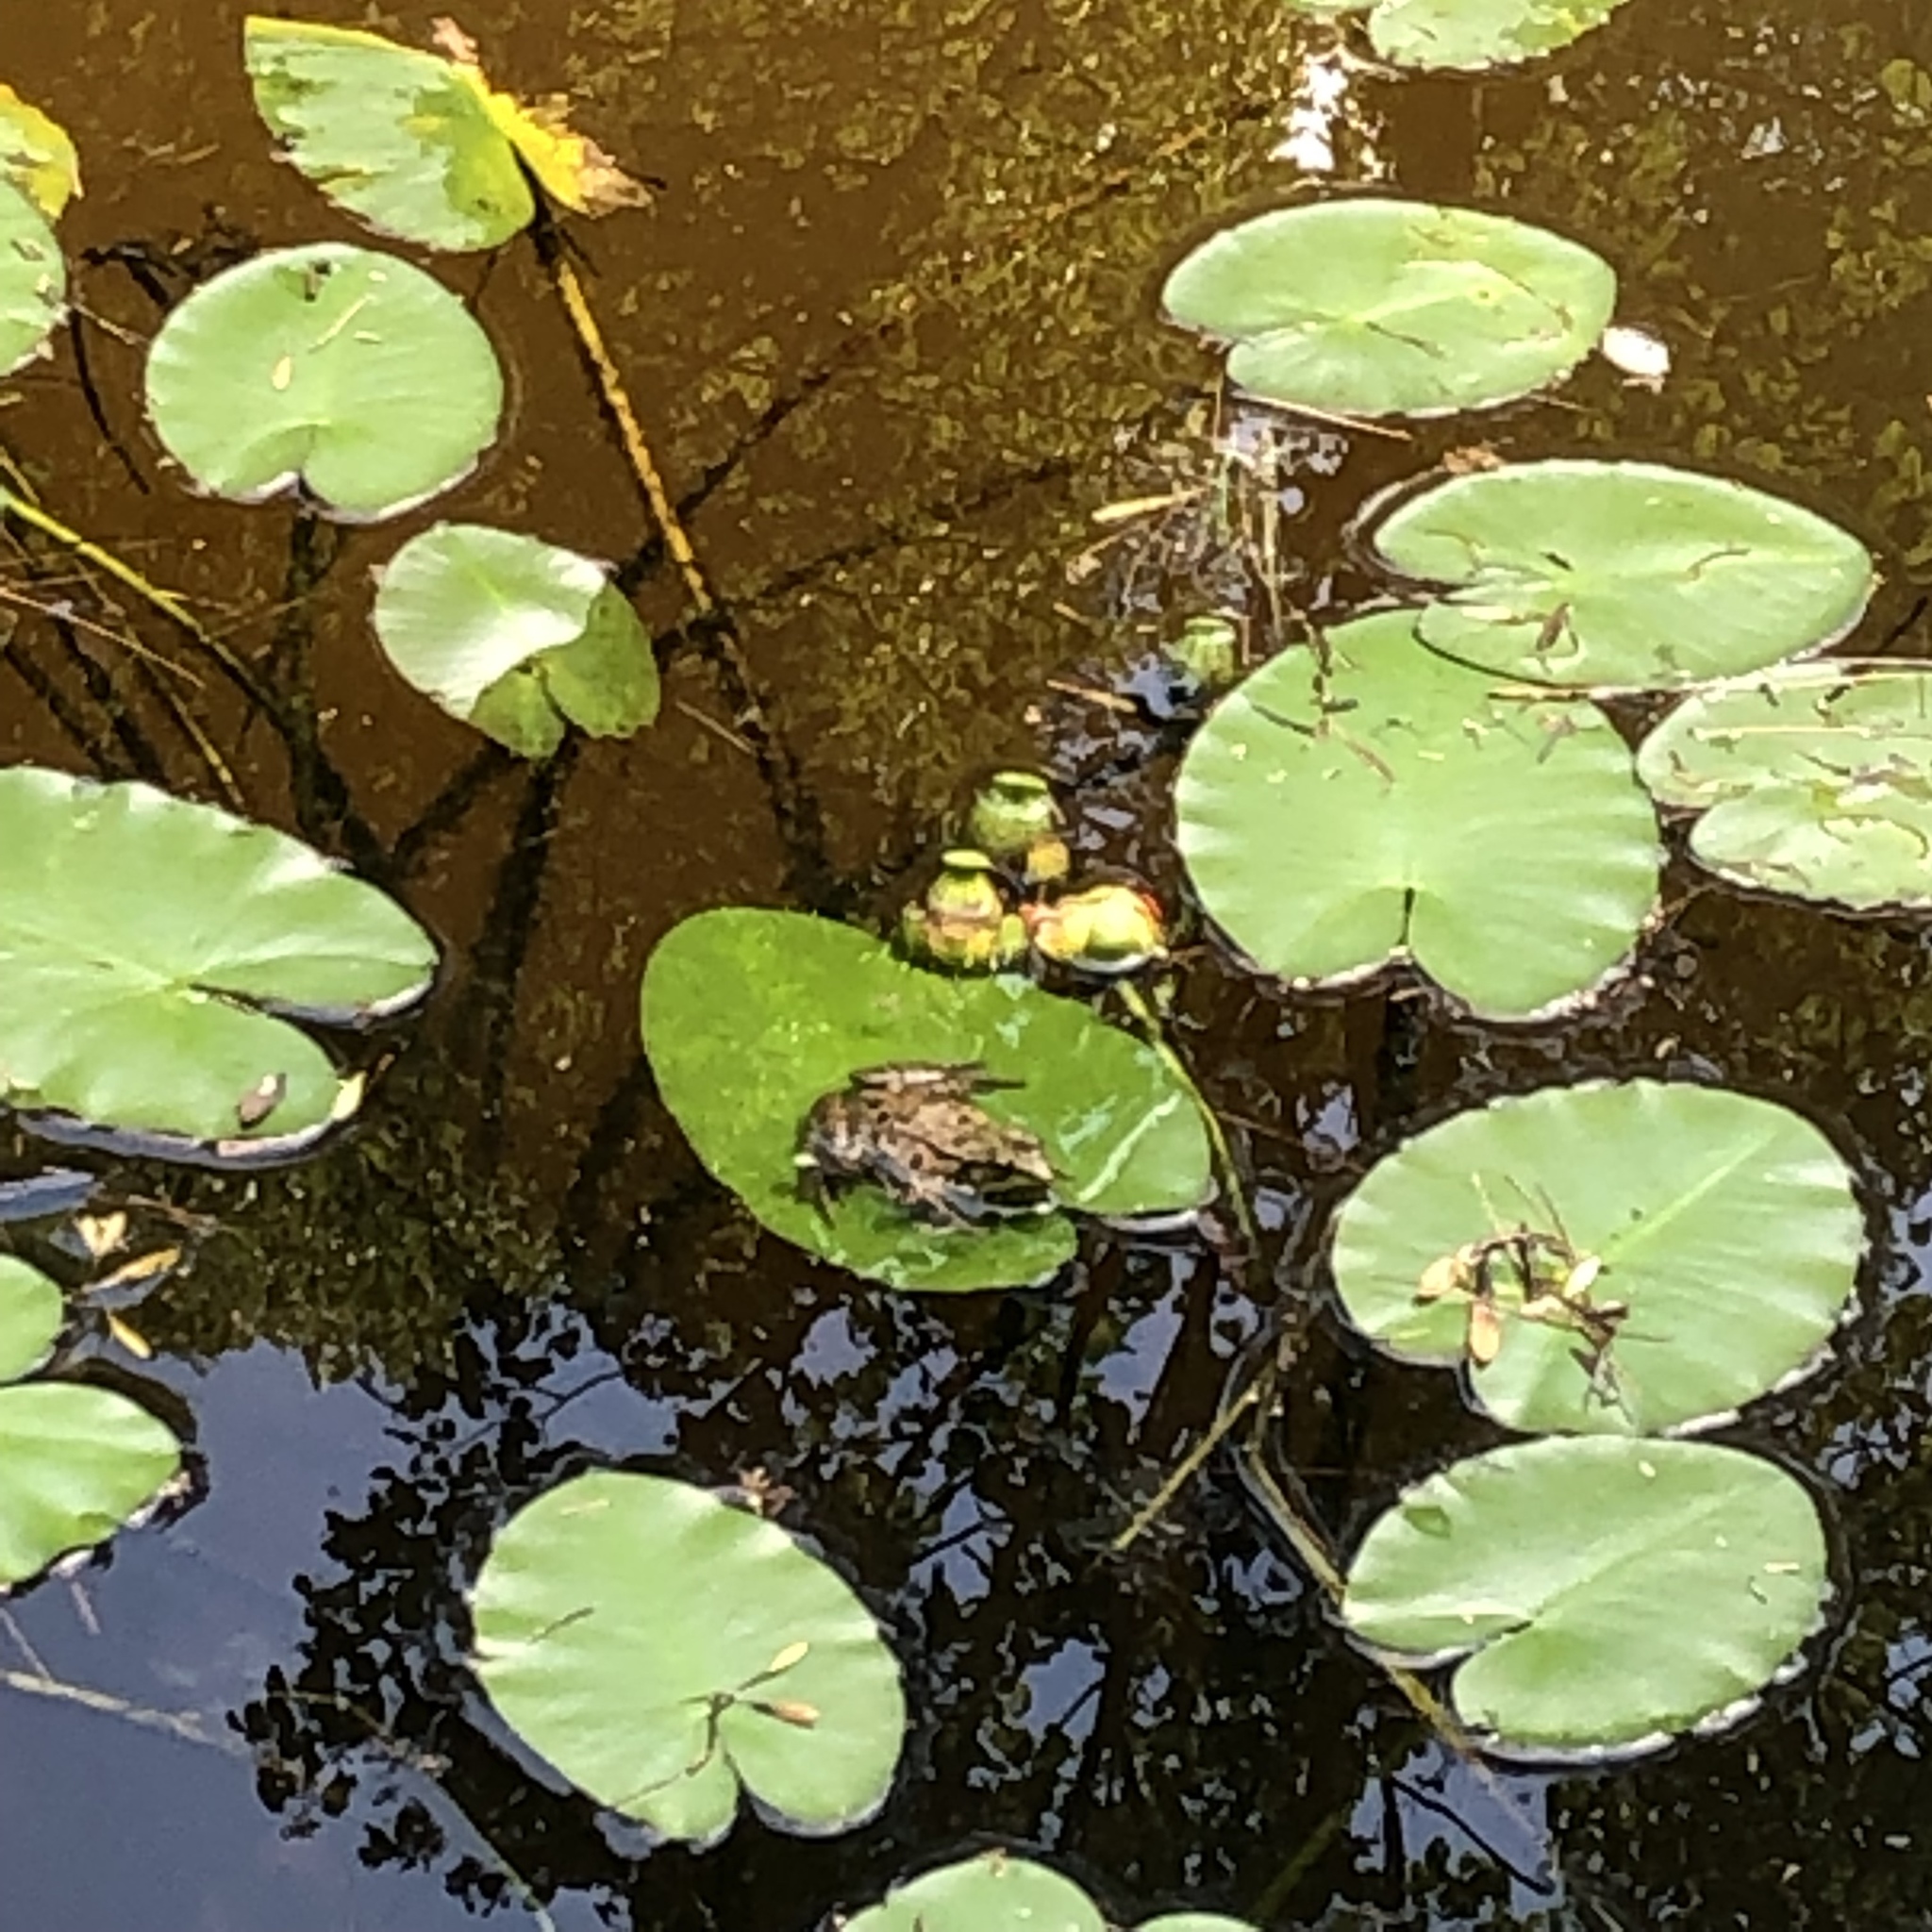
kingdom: Animalia
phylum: Chordata
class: Amphibia
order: Anura
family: Ranidae
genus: Lithobates
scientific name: Lithobates clamitans
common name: Green frog
